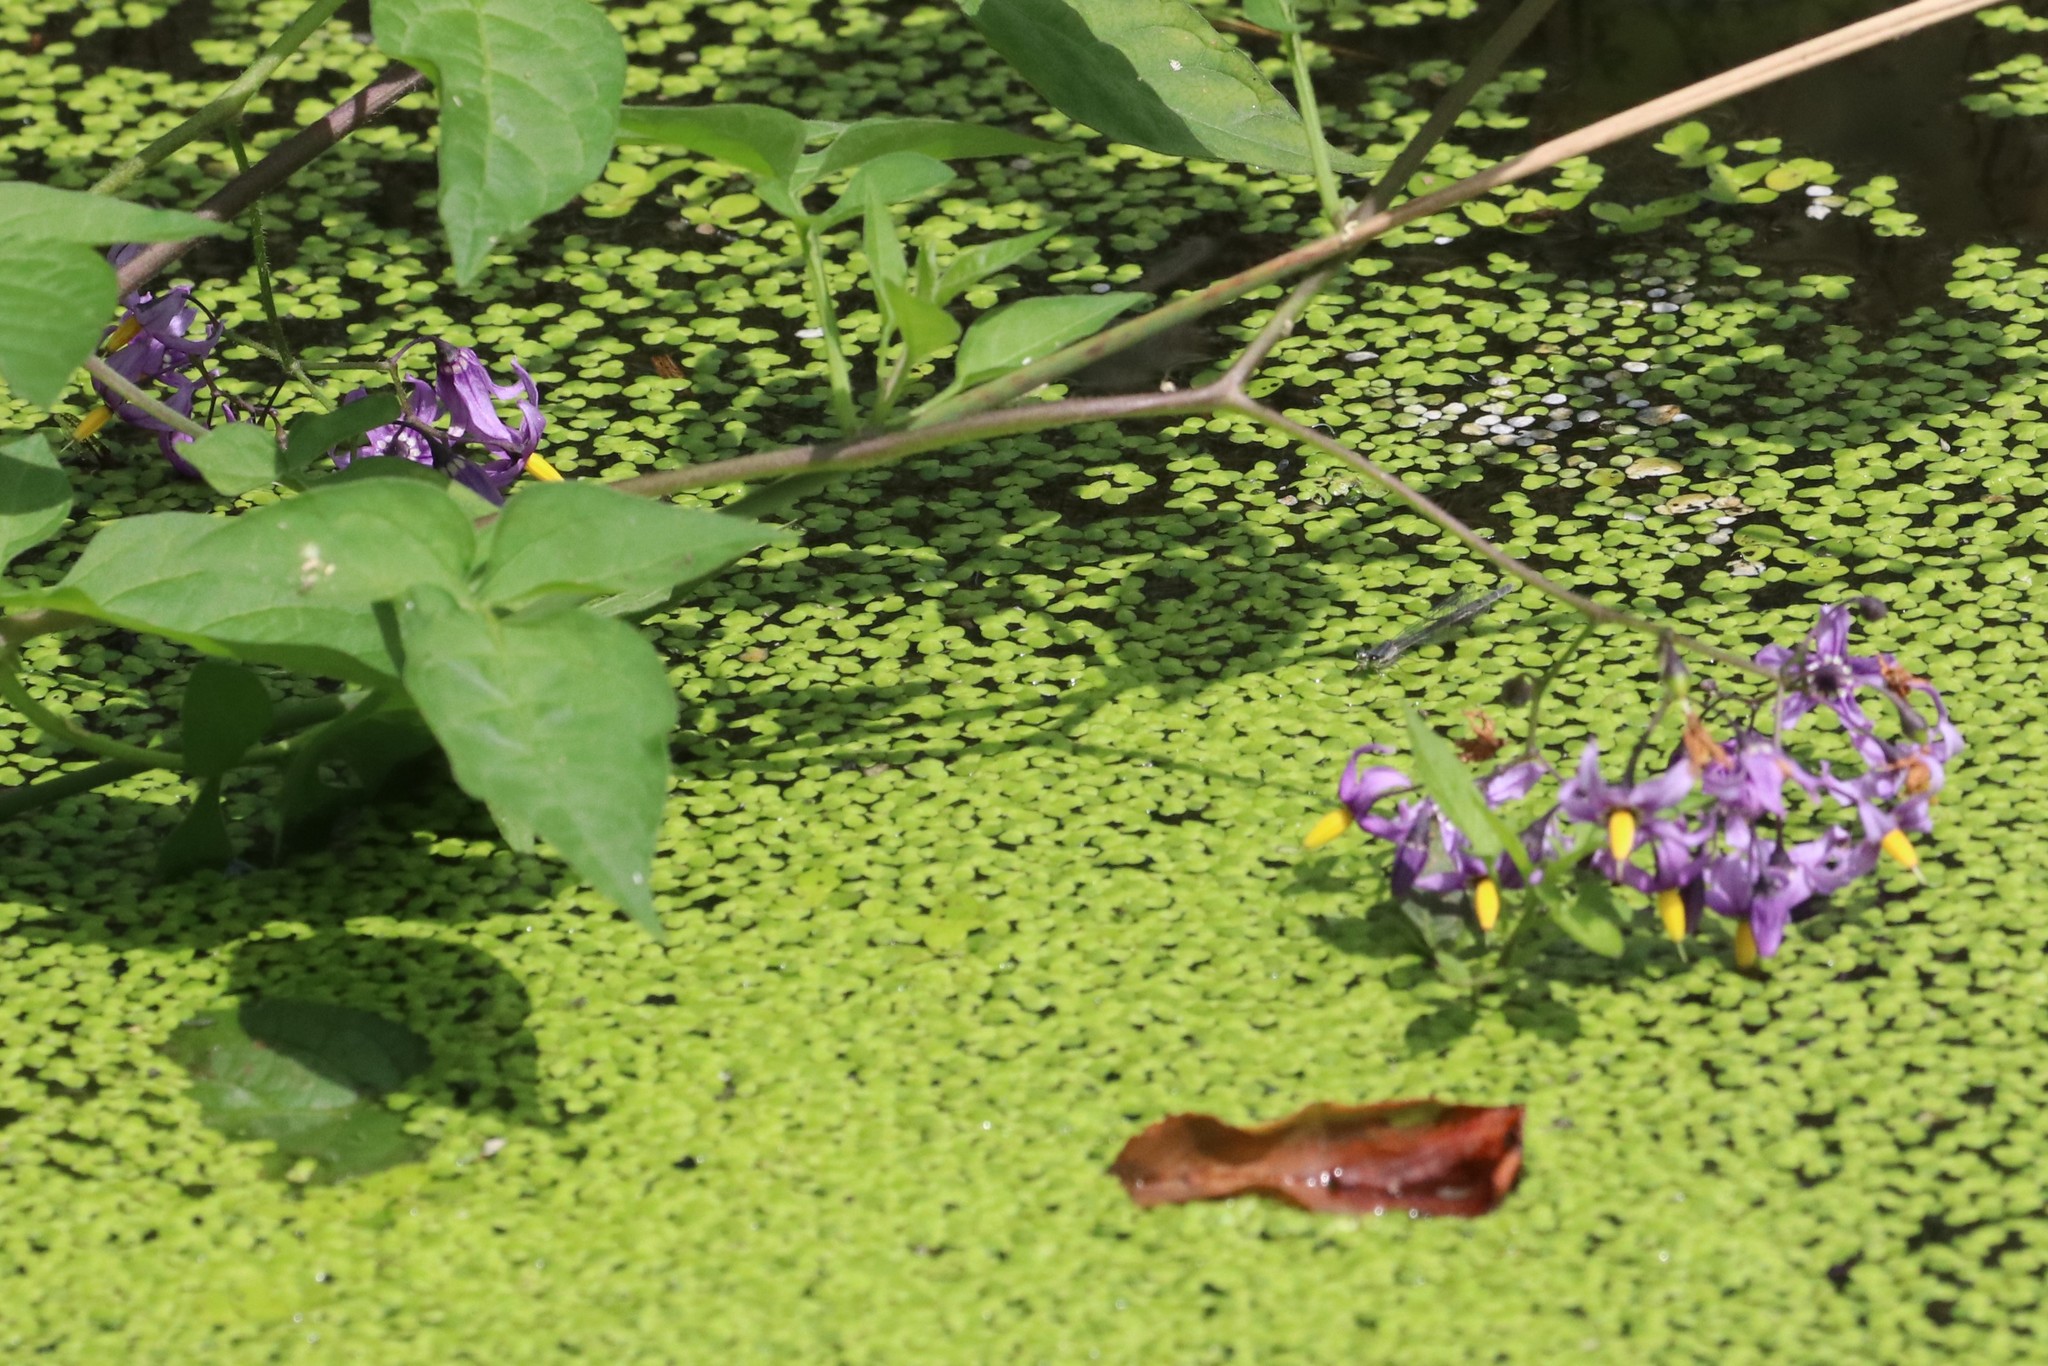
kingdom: Plantae
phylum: Tracheophyta
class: Magnoliopsida
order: Solanales
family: Solanaceae
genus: Solanum
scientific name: Solanum dulcamara
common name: Climbing nightshade
